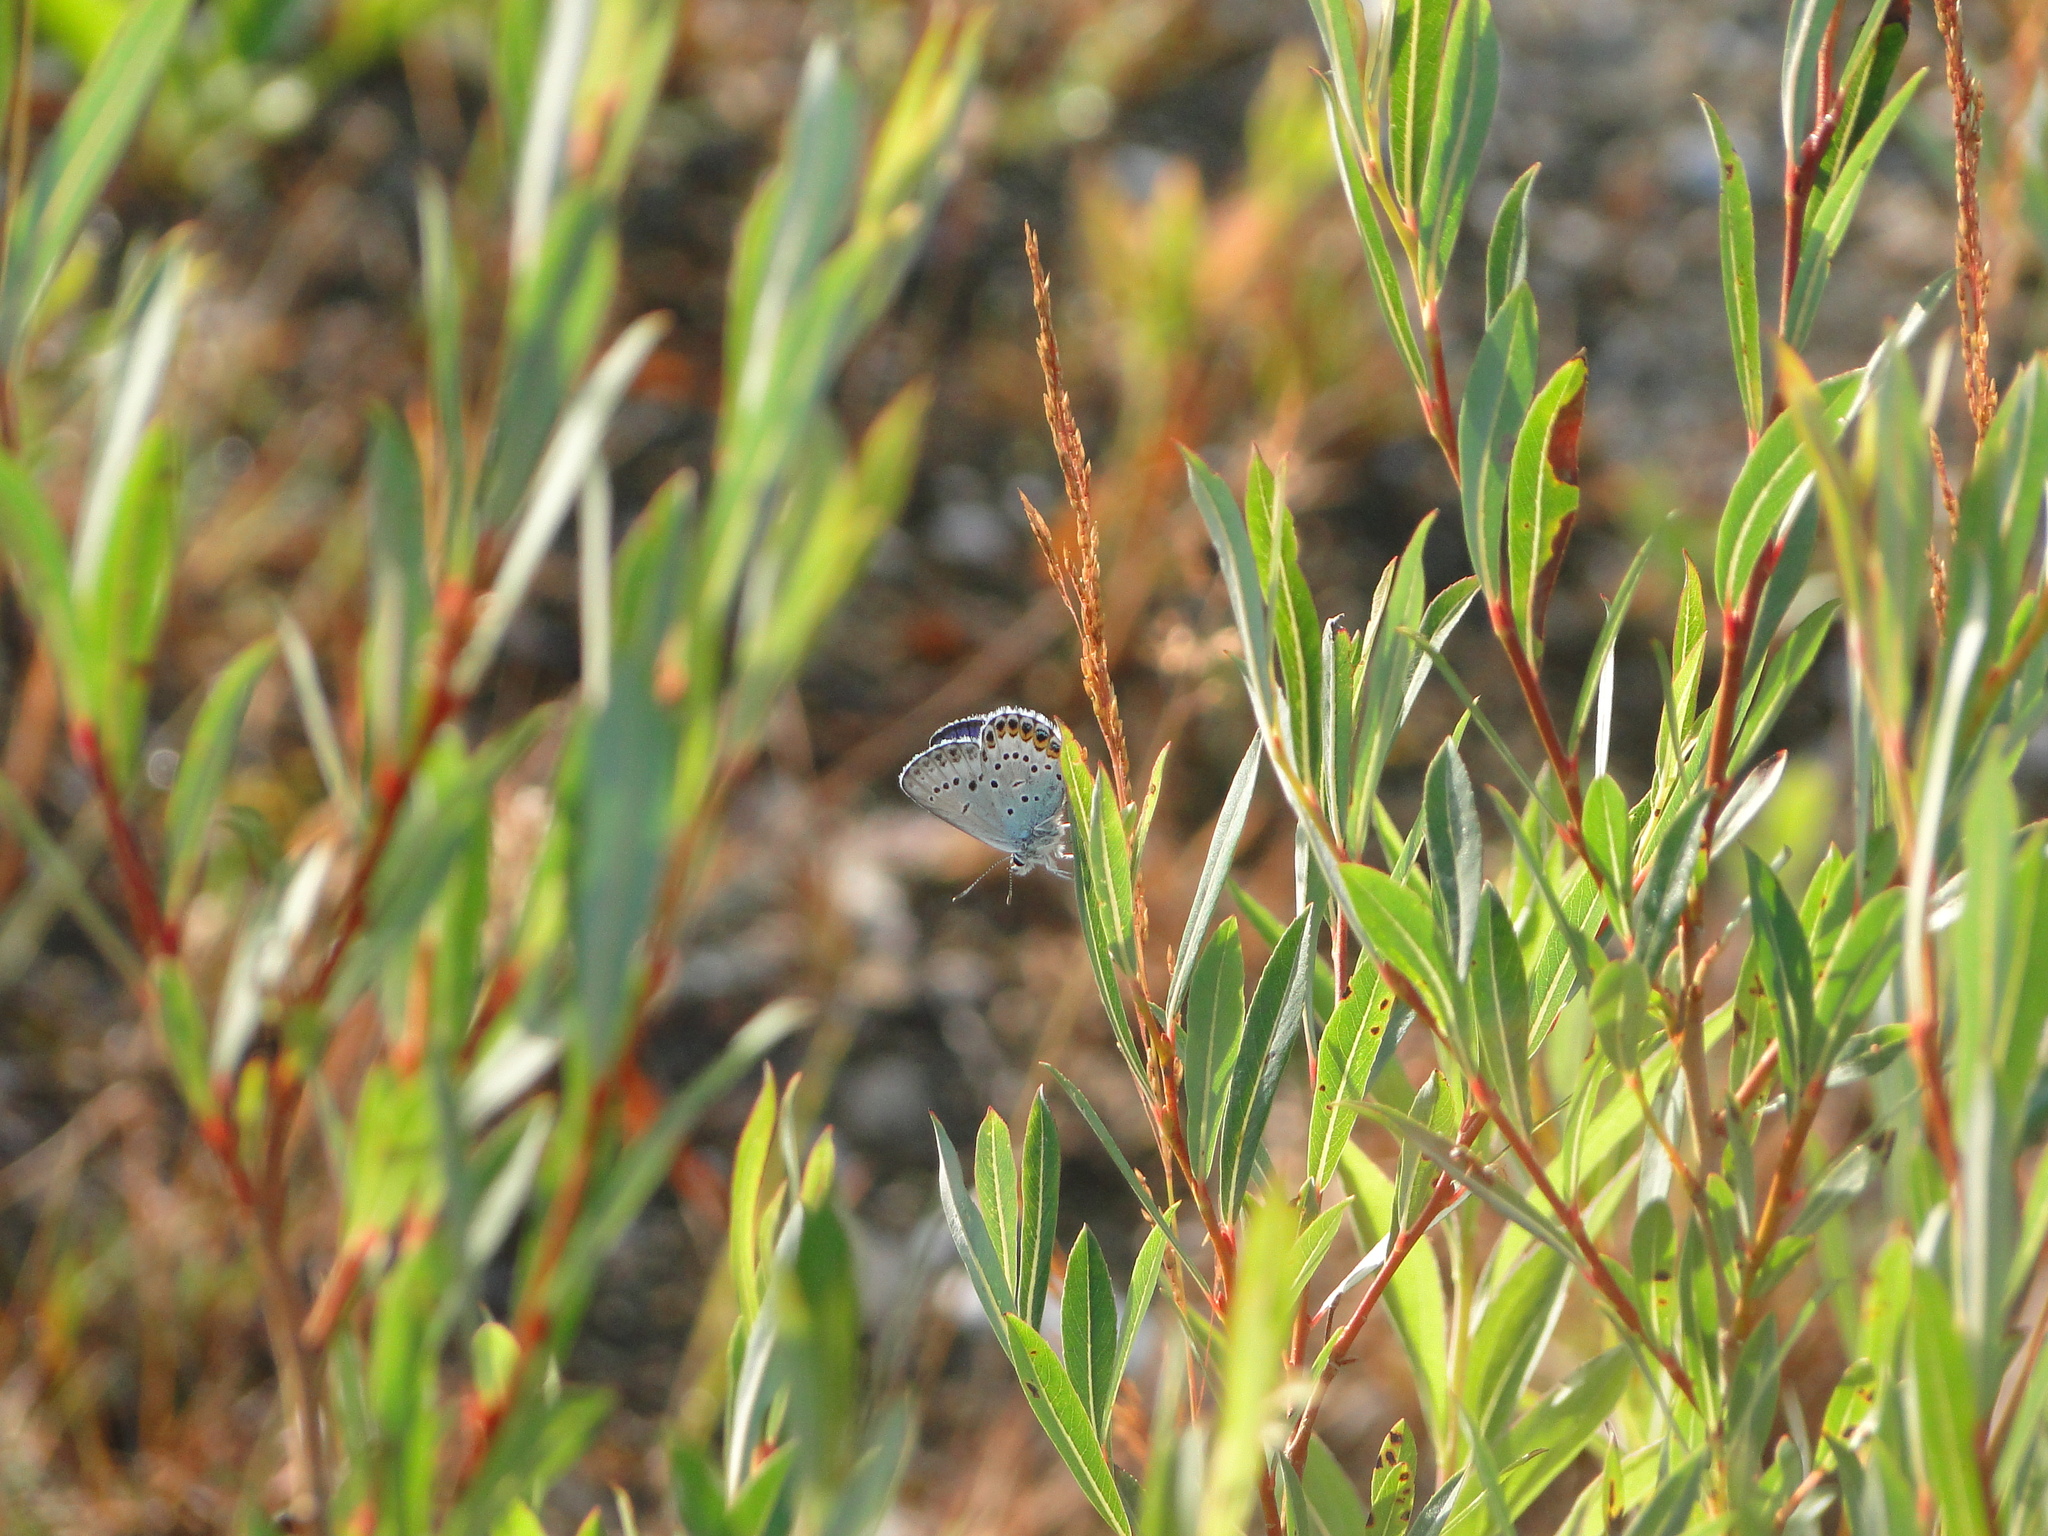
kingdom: Animalia
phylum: Arthropoda
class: Insecta
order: Lepidoptera
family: Lycaenidae
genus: Lycaeides
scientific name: Lycaeides idas
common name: Northern blue
